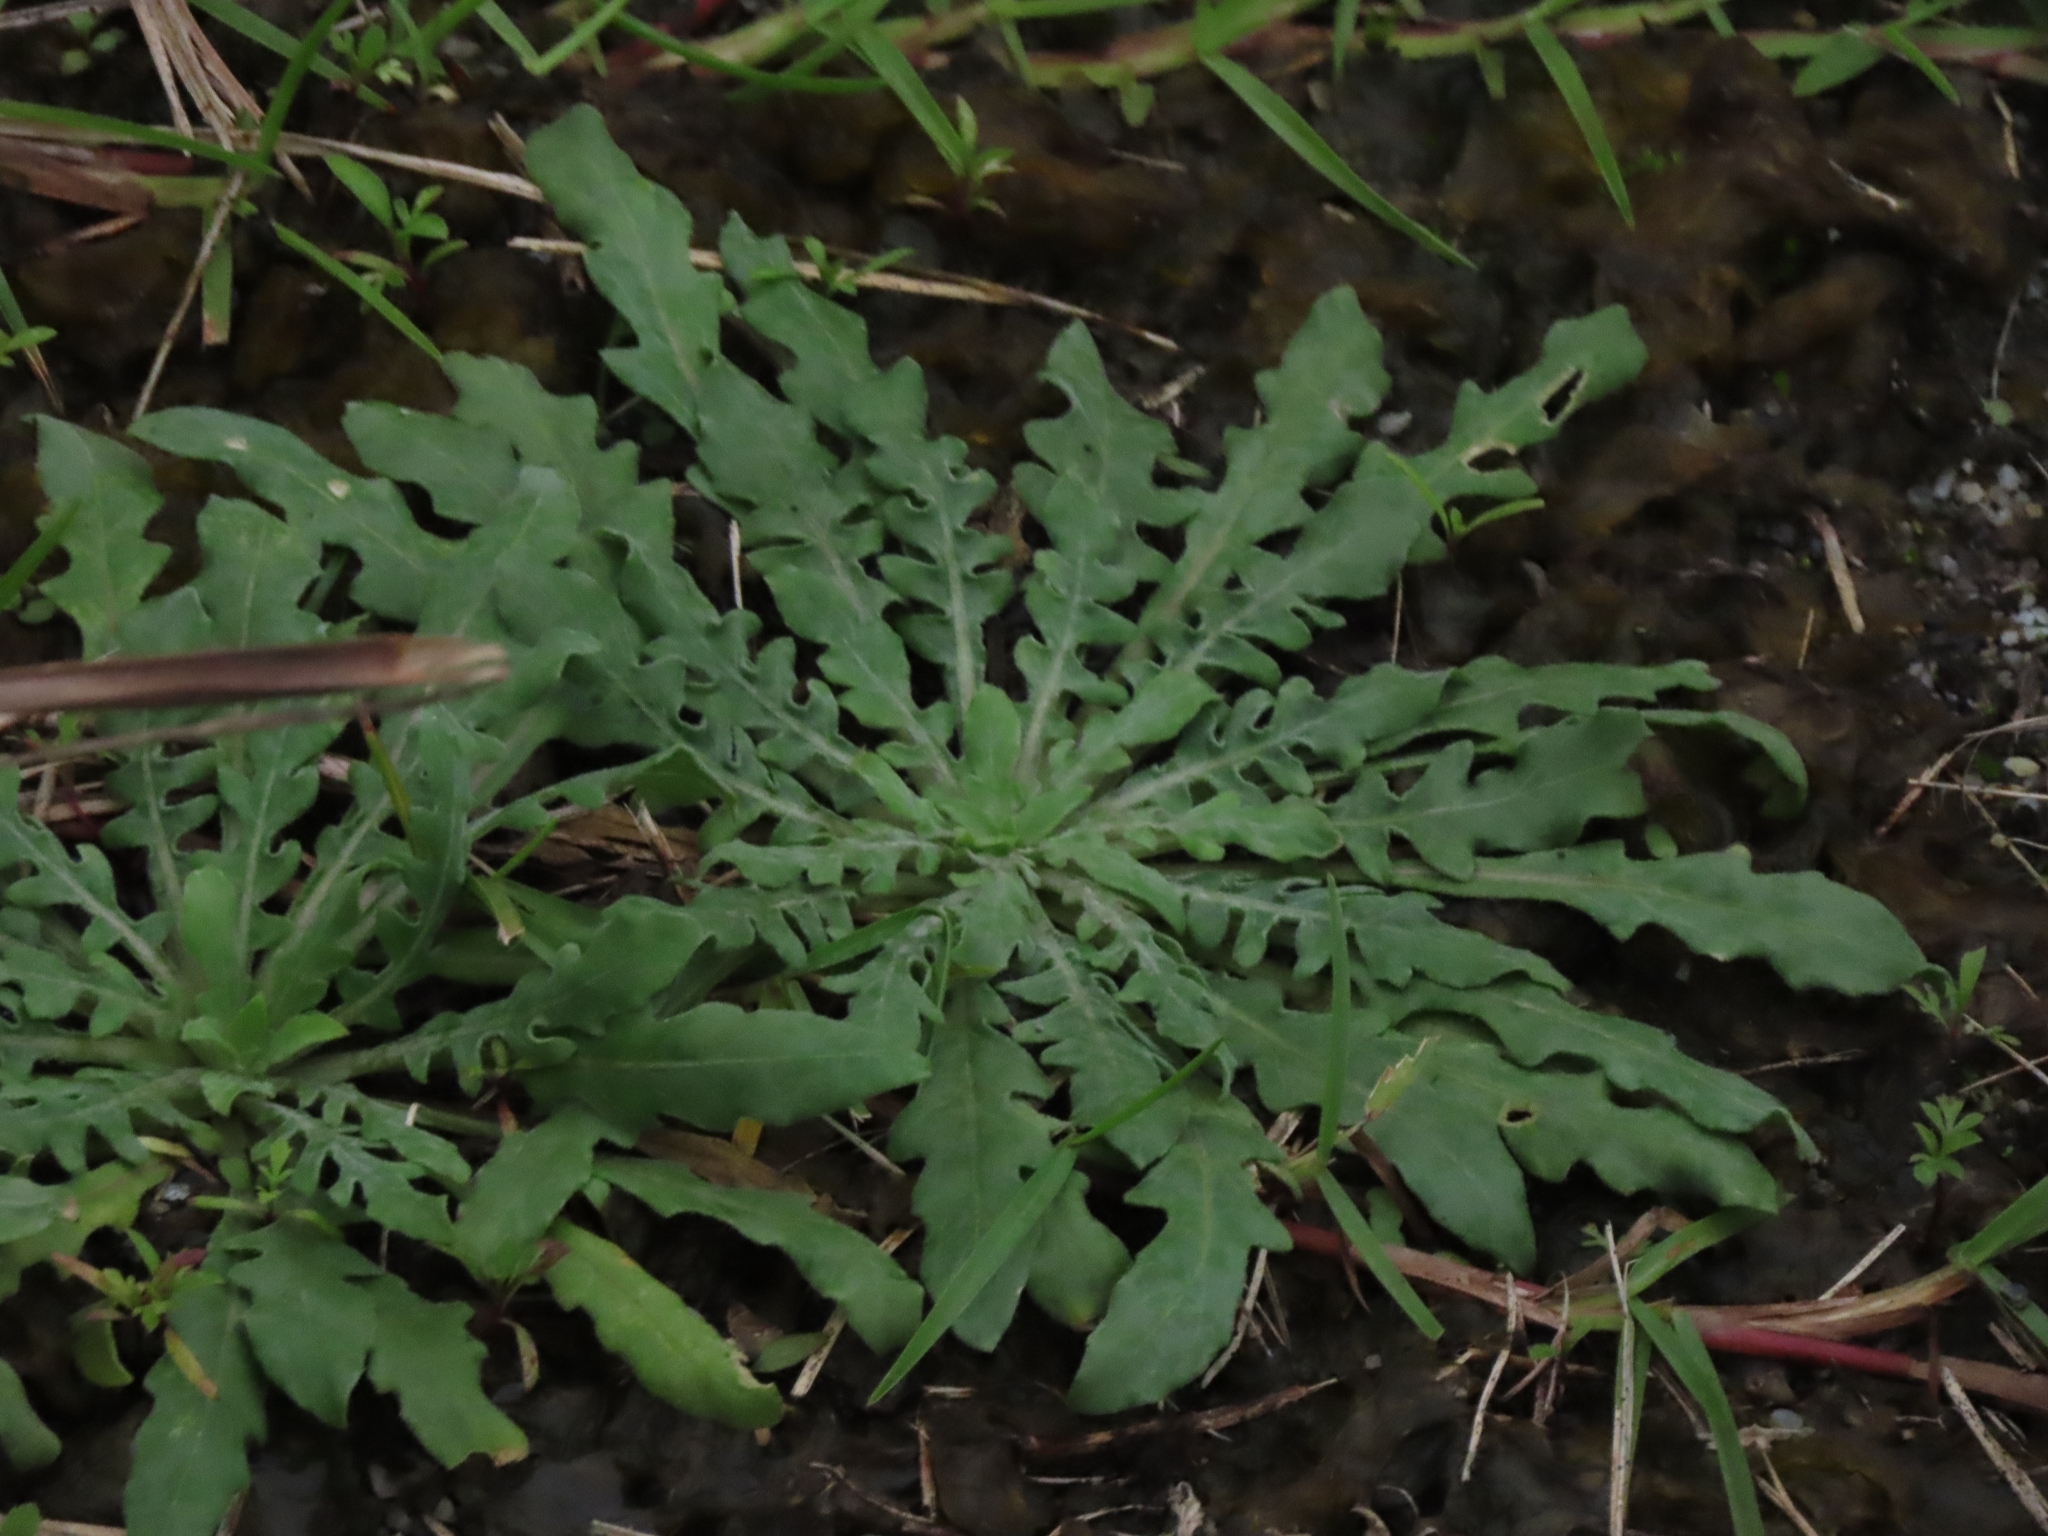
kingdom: Plantae
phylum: Tracheophyta
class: Magnoliopsida
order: Myrtales
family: Onagraceae
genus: Oenothera
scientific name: Oenothera laciniata
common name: Cut-leaved evening-primrose
